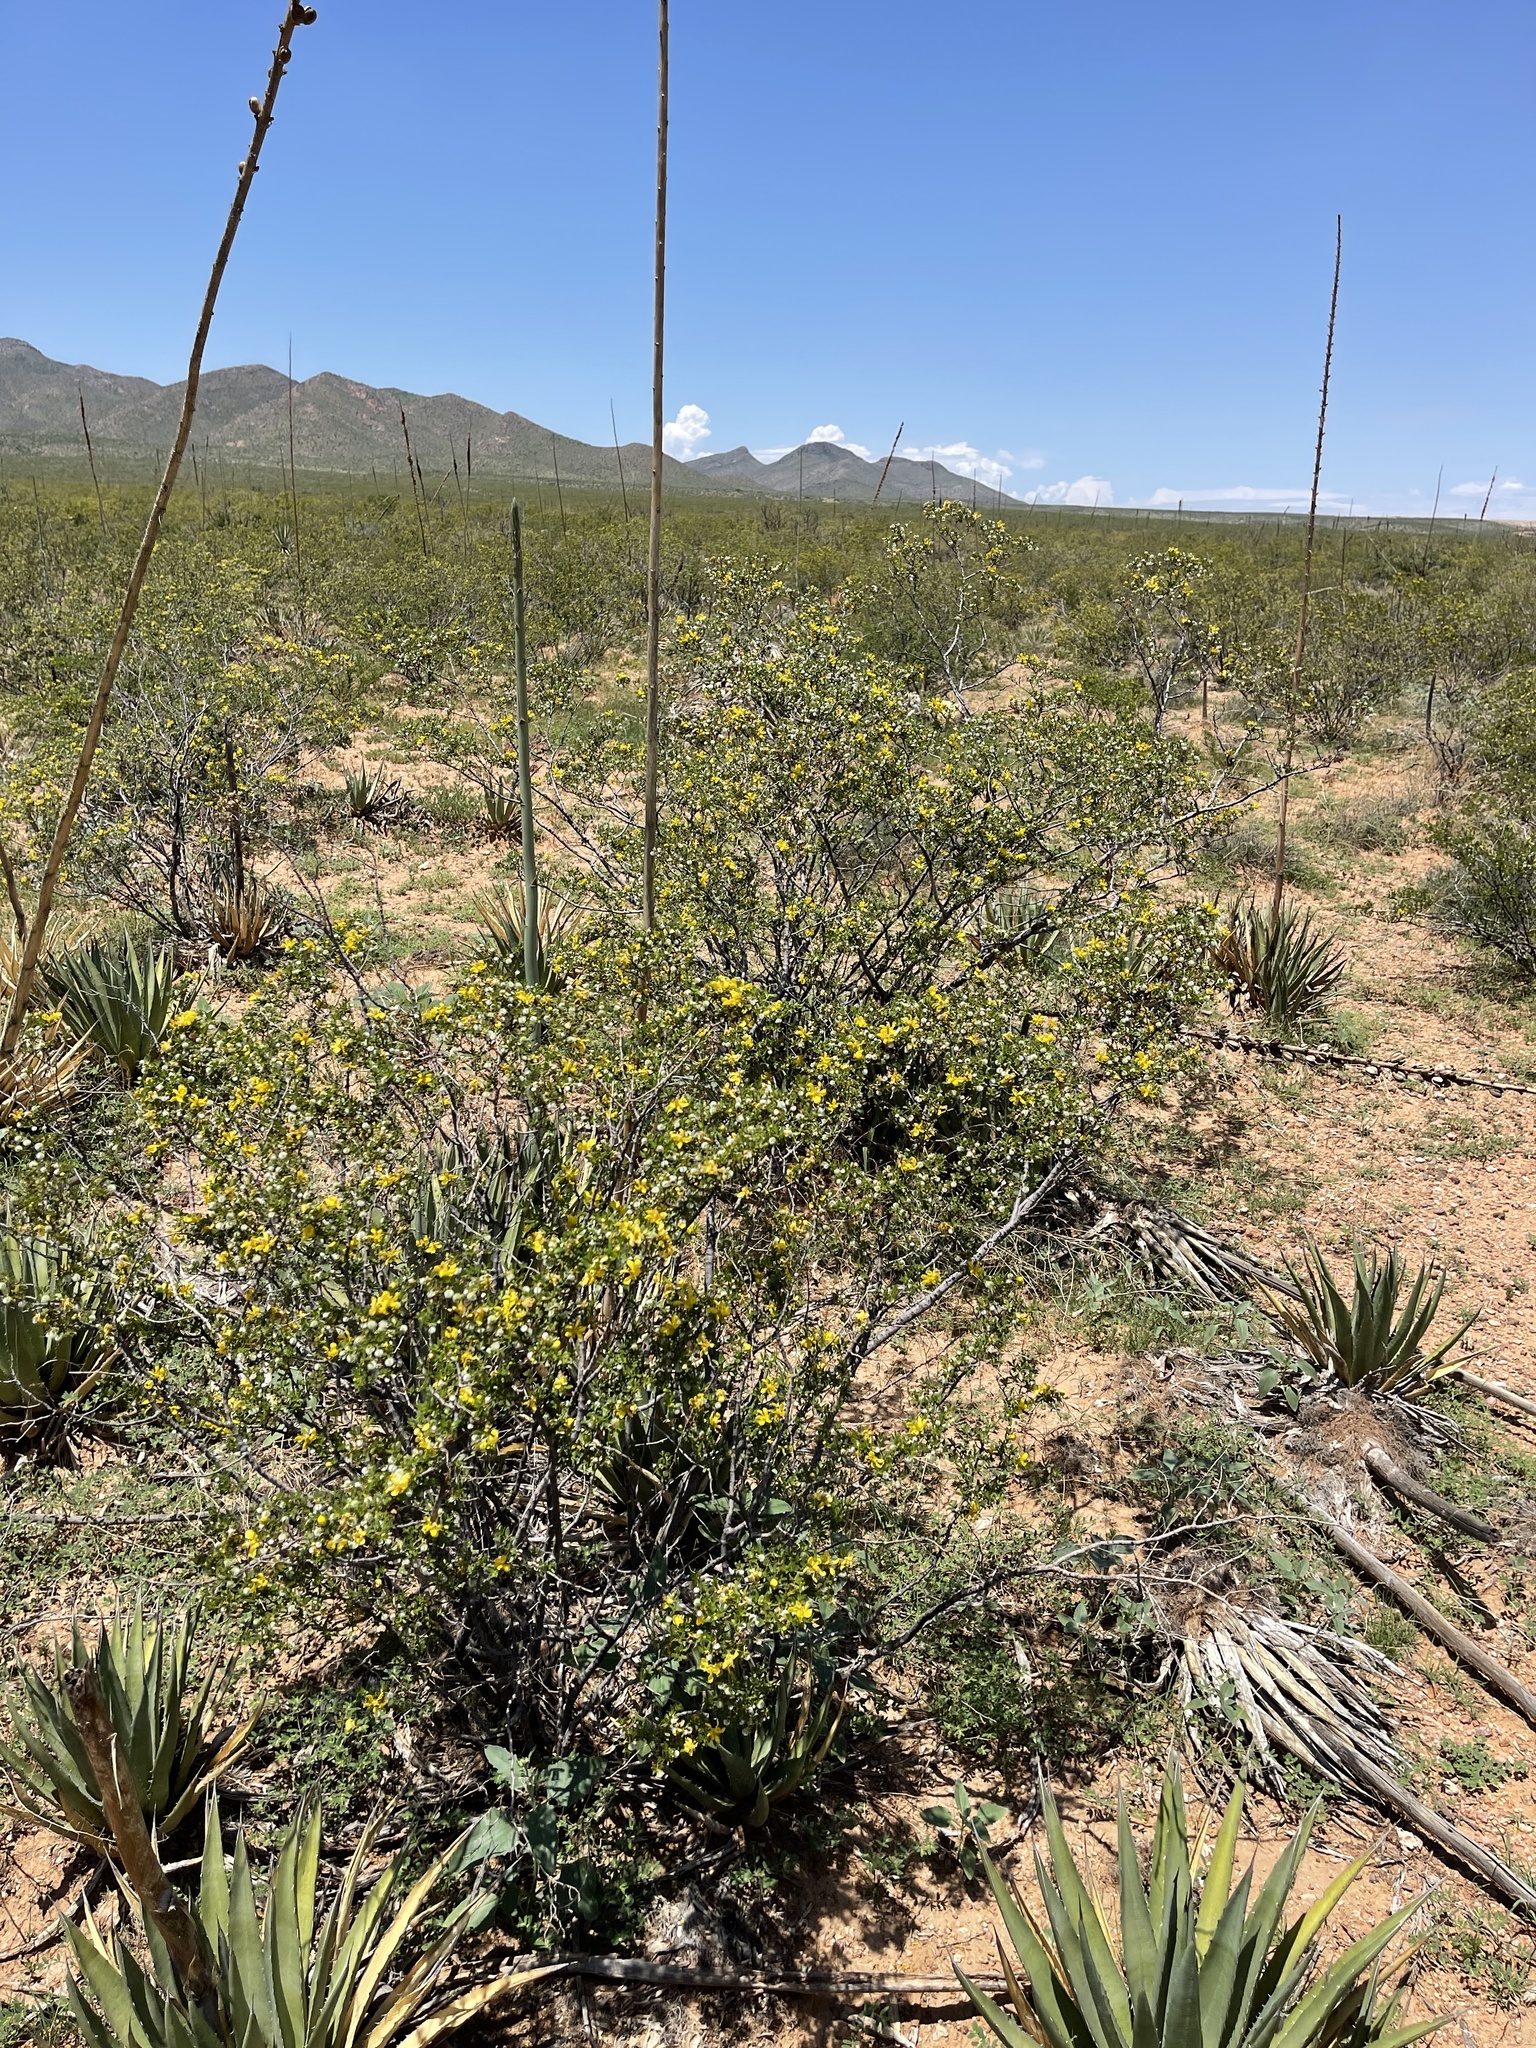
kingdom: Plantae
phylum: Tracheophyta
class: Magnoliopsida
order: Zygophyllales
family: Zygophyllaceae
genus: Larrea
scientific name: Larrea tridentata
